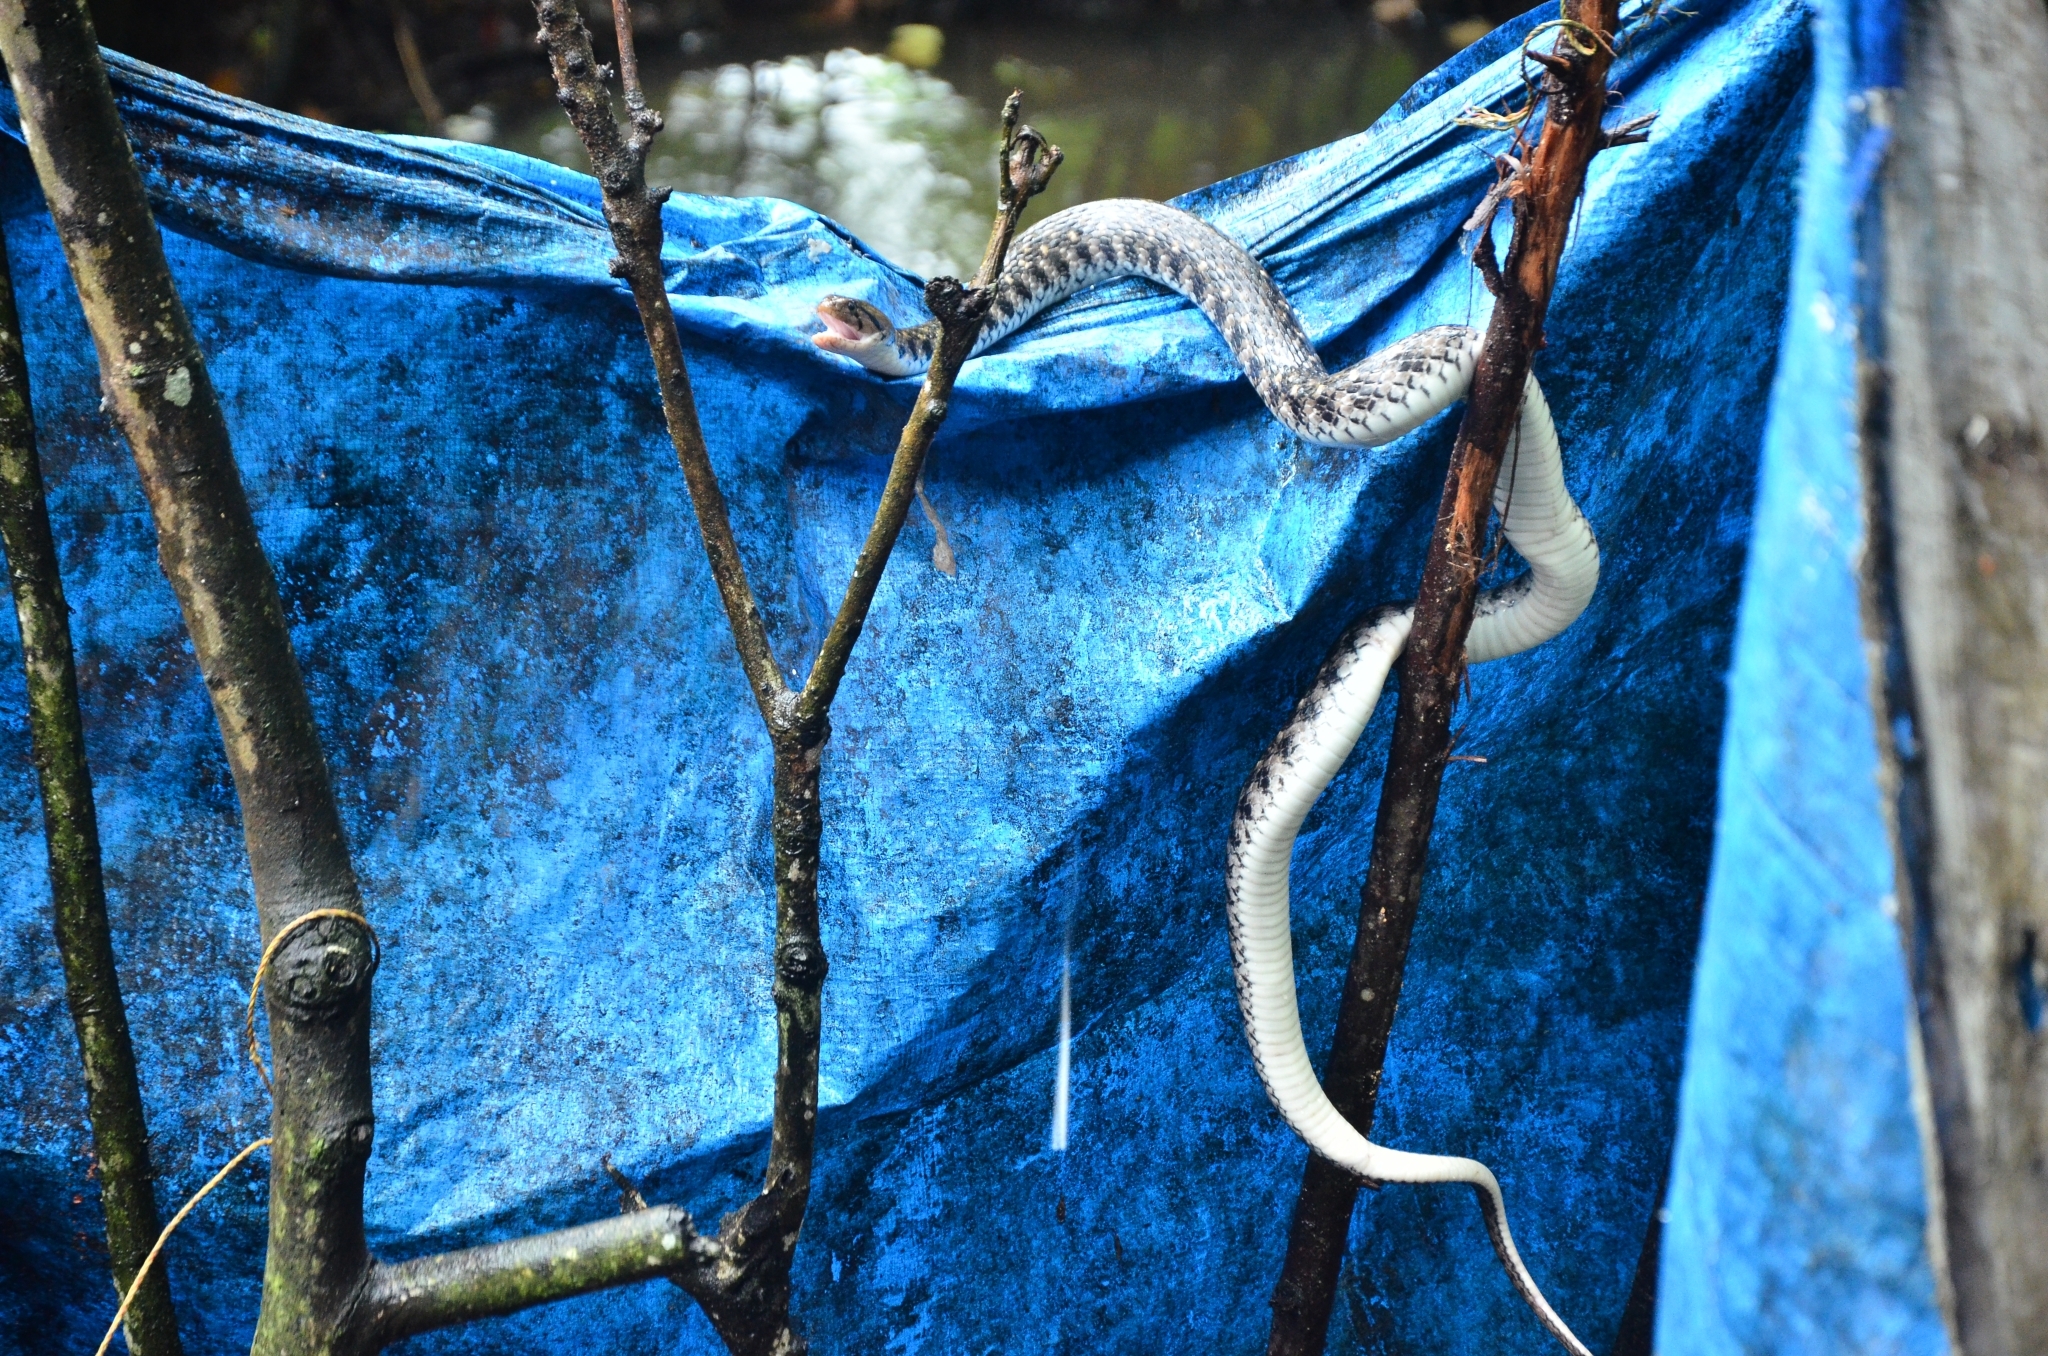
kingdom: Animalia
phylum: Chordata
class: Squamata
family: Colubridae
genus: Fowlea
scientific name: Fowlea piscator
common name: Asiatic water snake
